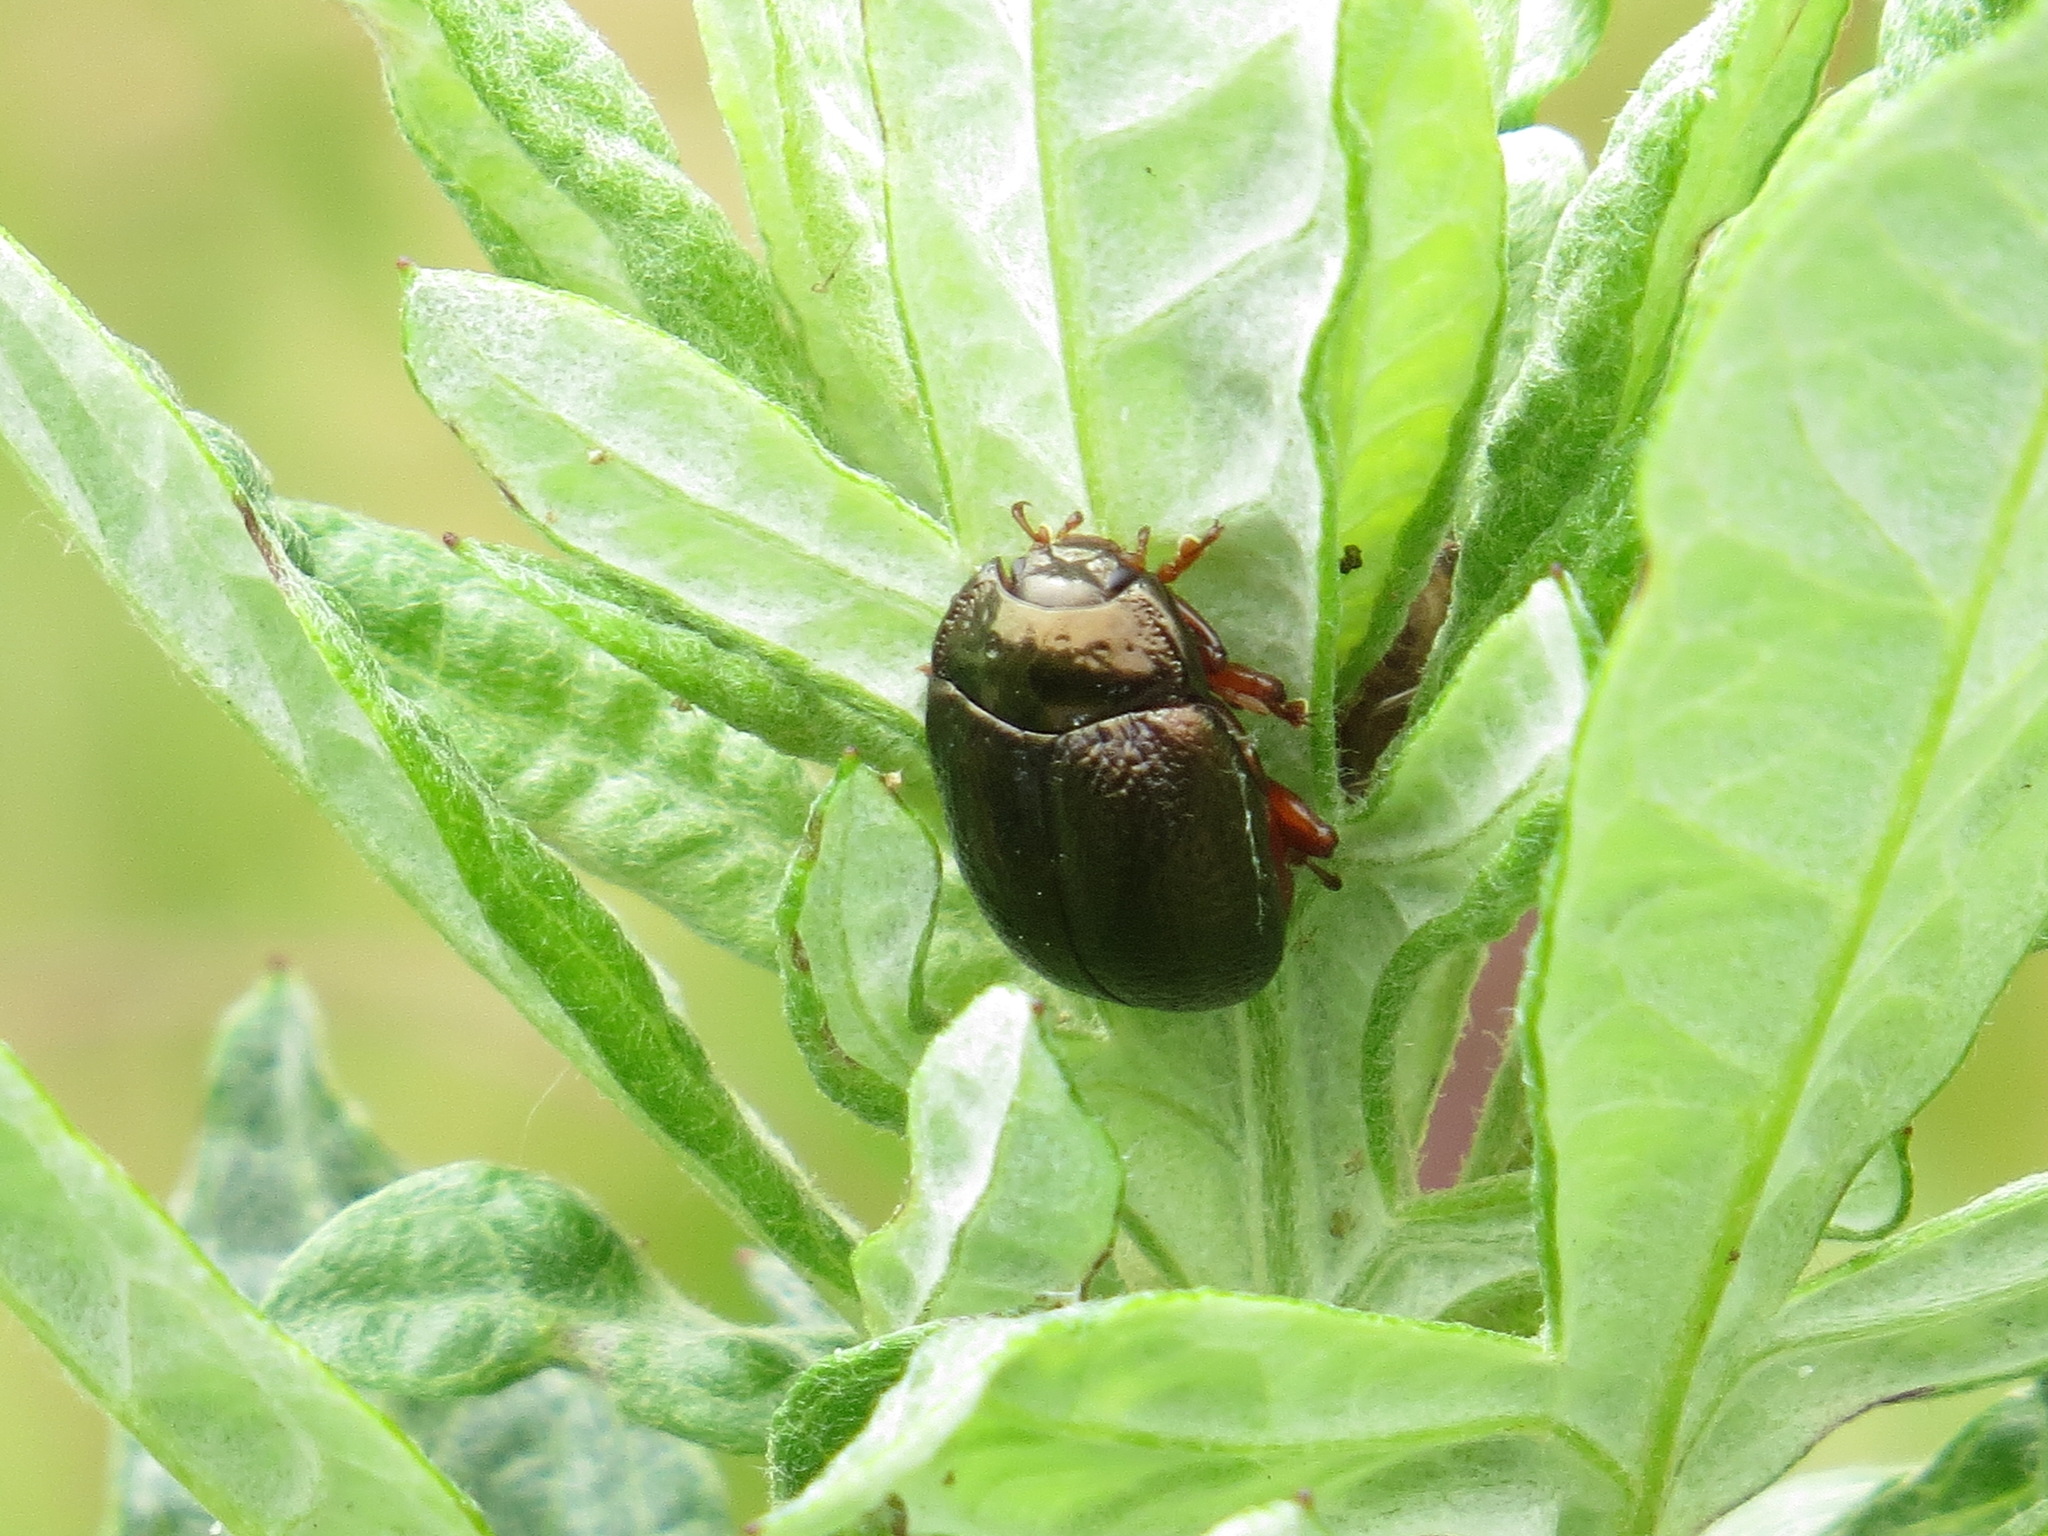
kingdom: Animalia
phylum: Arthropoda
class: Insecta
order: Coleoptera
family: Chrysomelidae
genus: Chrysolina
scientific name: Chrysolina bankii
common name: Leaf beetle
